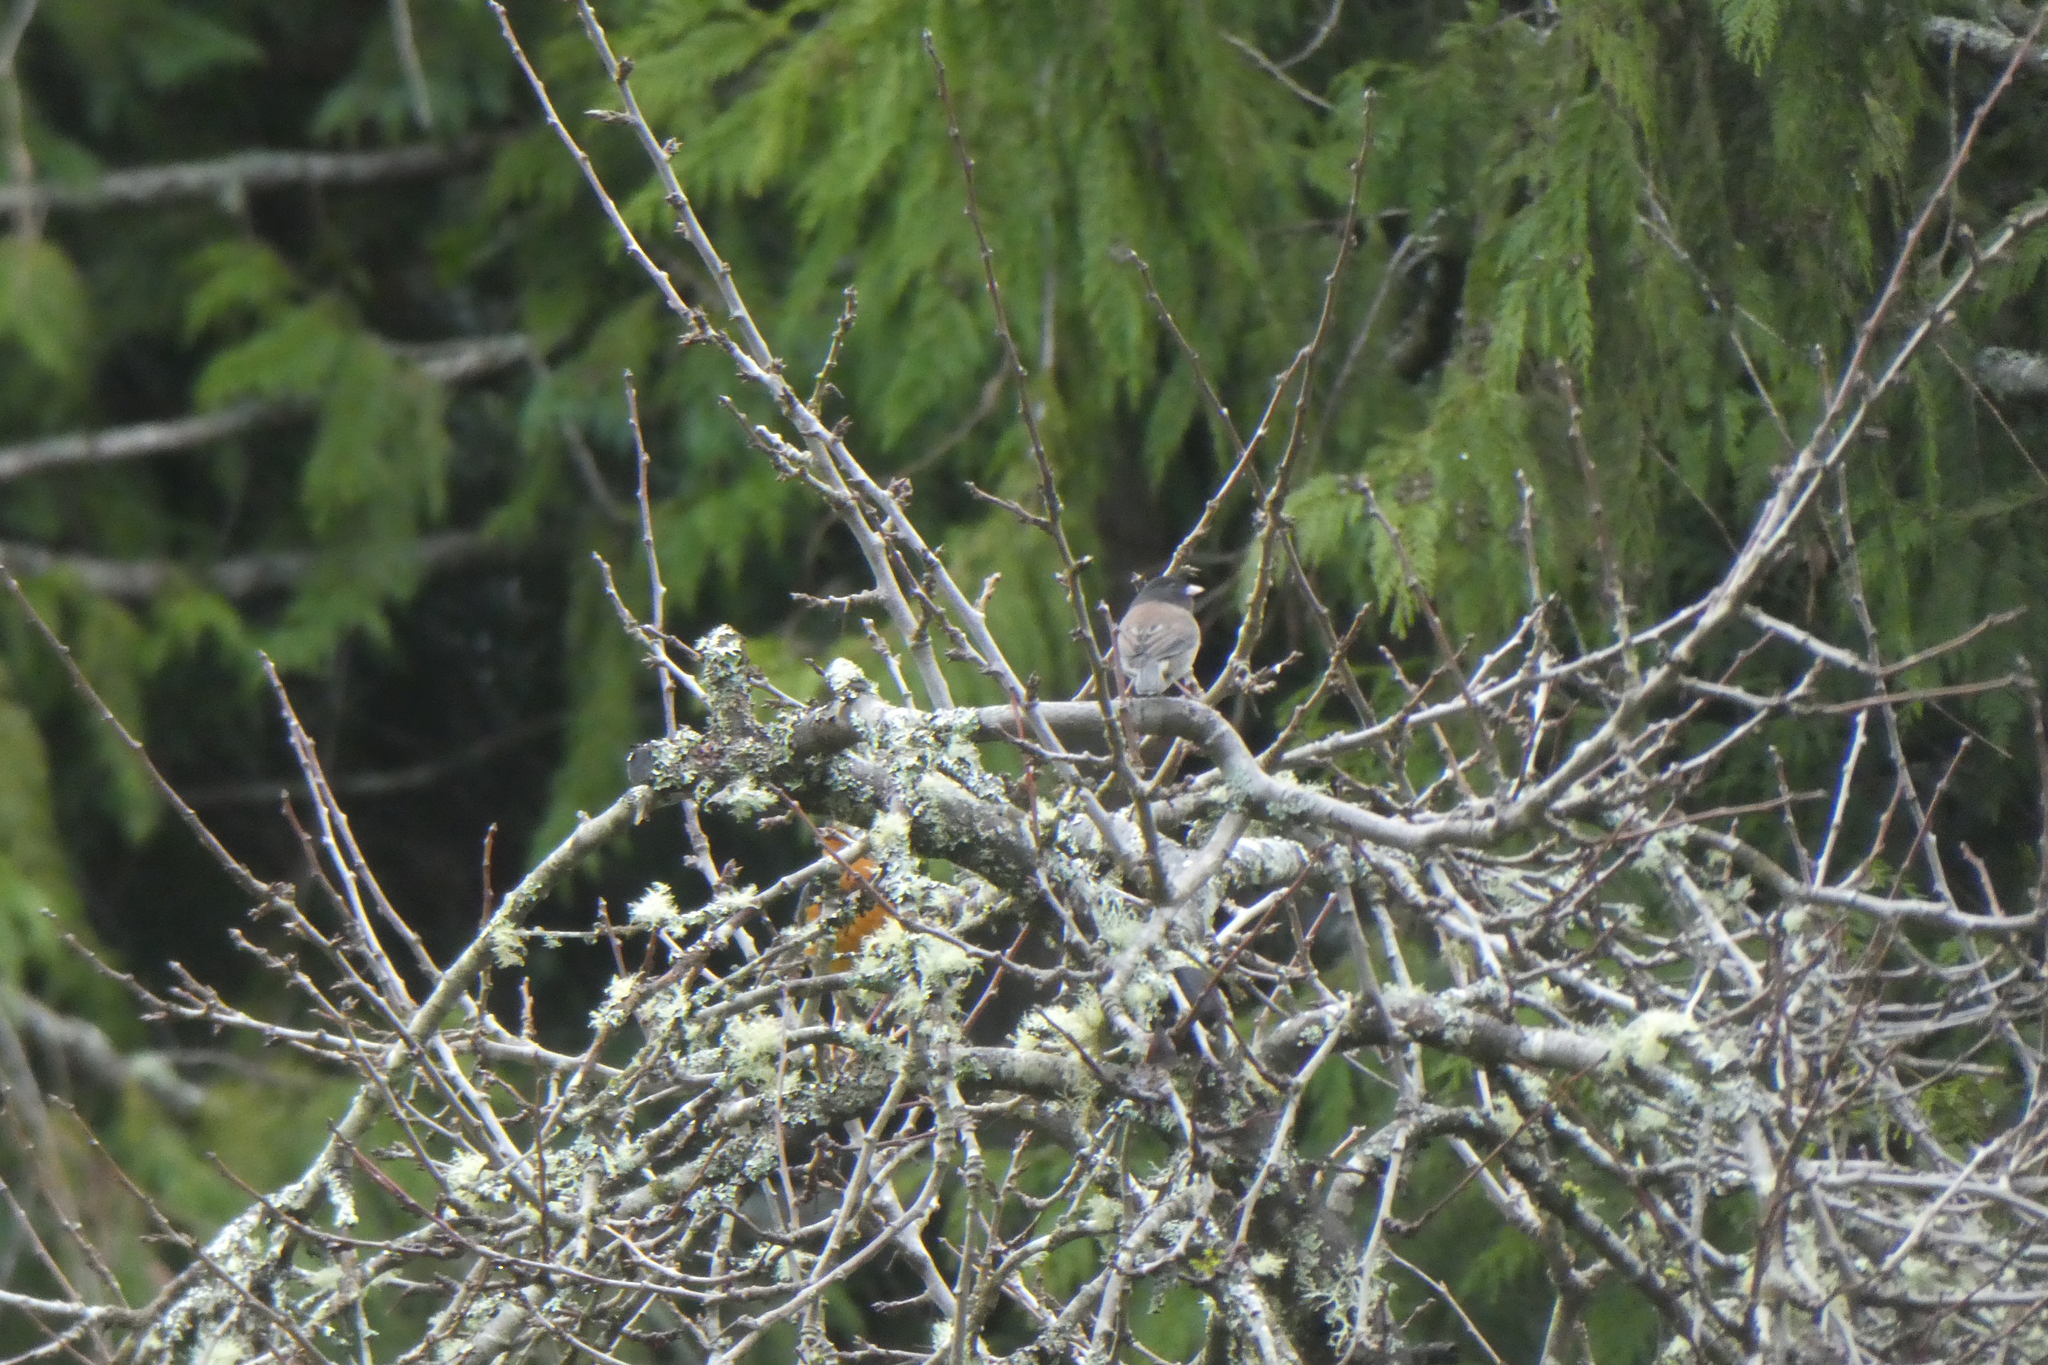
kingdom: Animalia
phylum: Chordata
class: Aves
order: Passeriformes
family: Passerellidae
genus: Junco
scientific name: Junco hyemalis
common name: Dark-eyed junco
